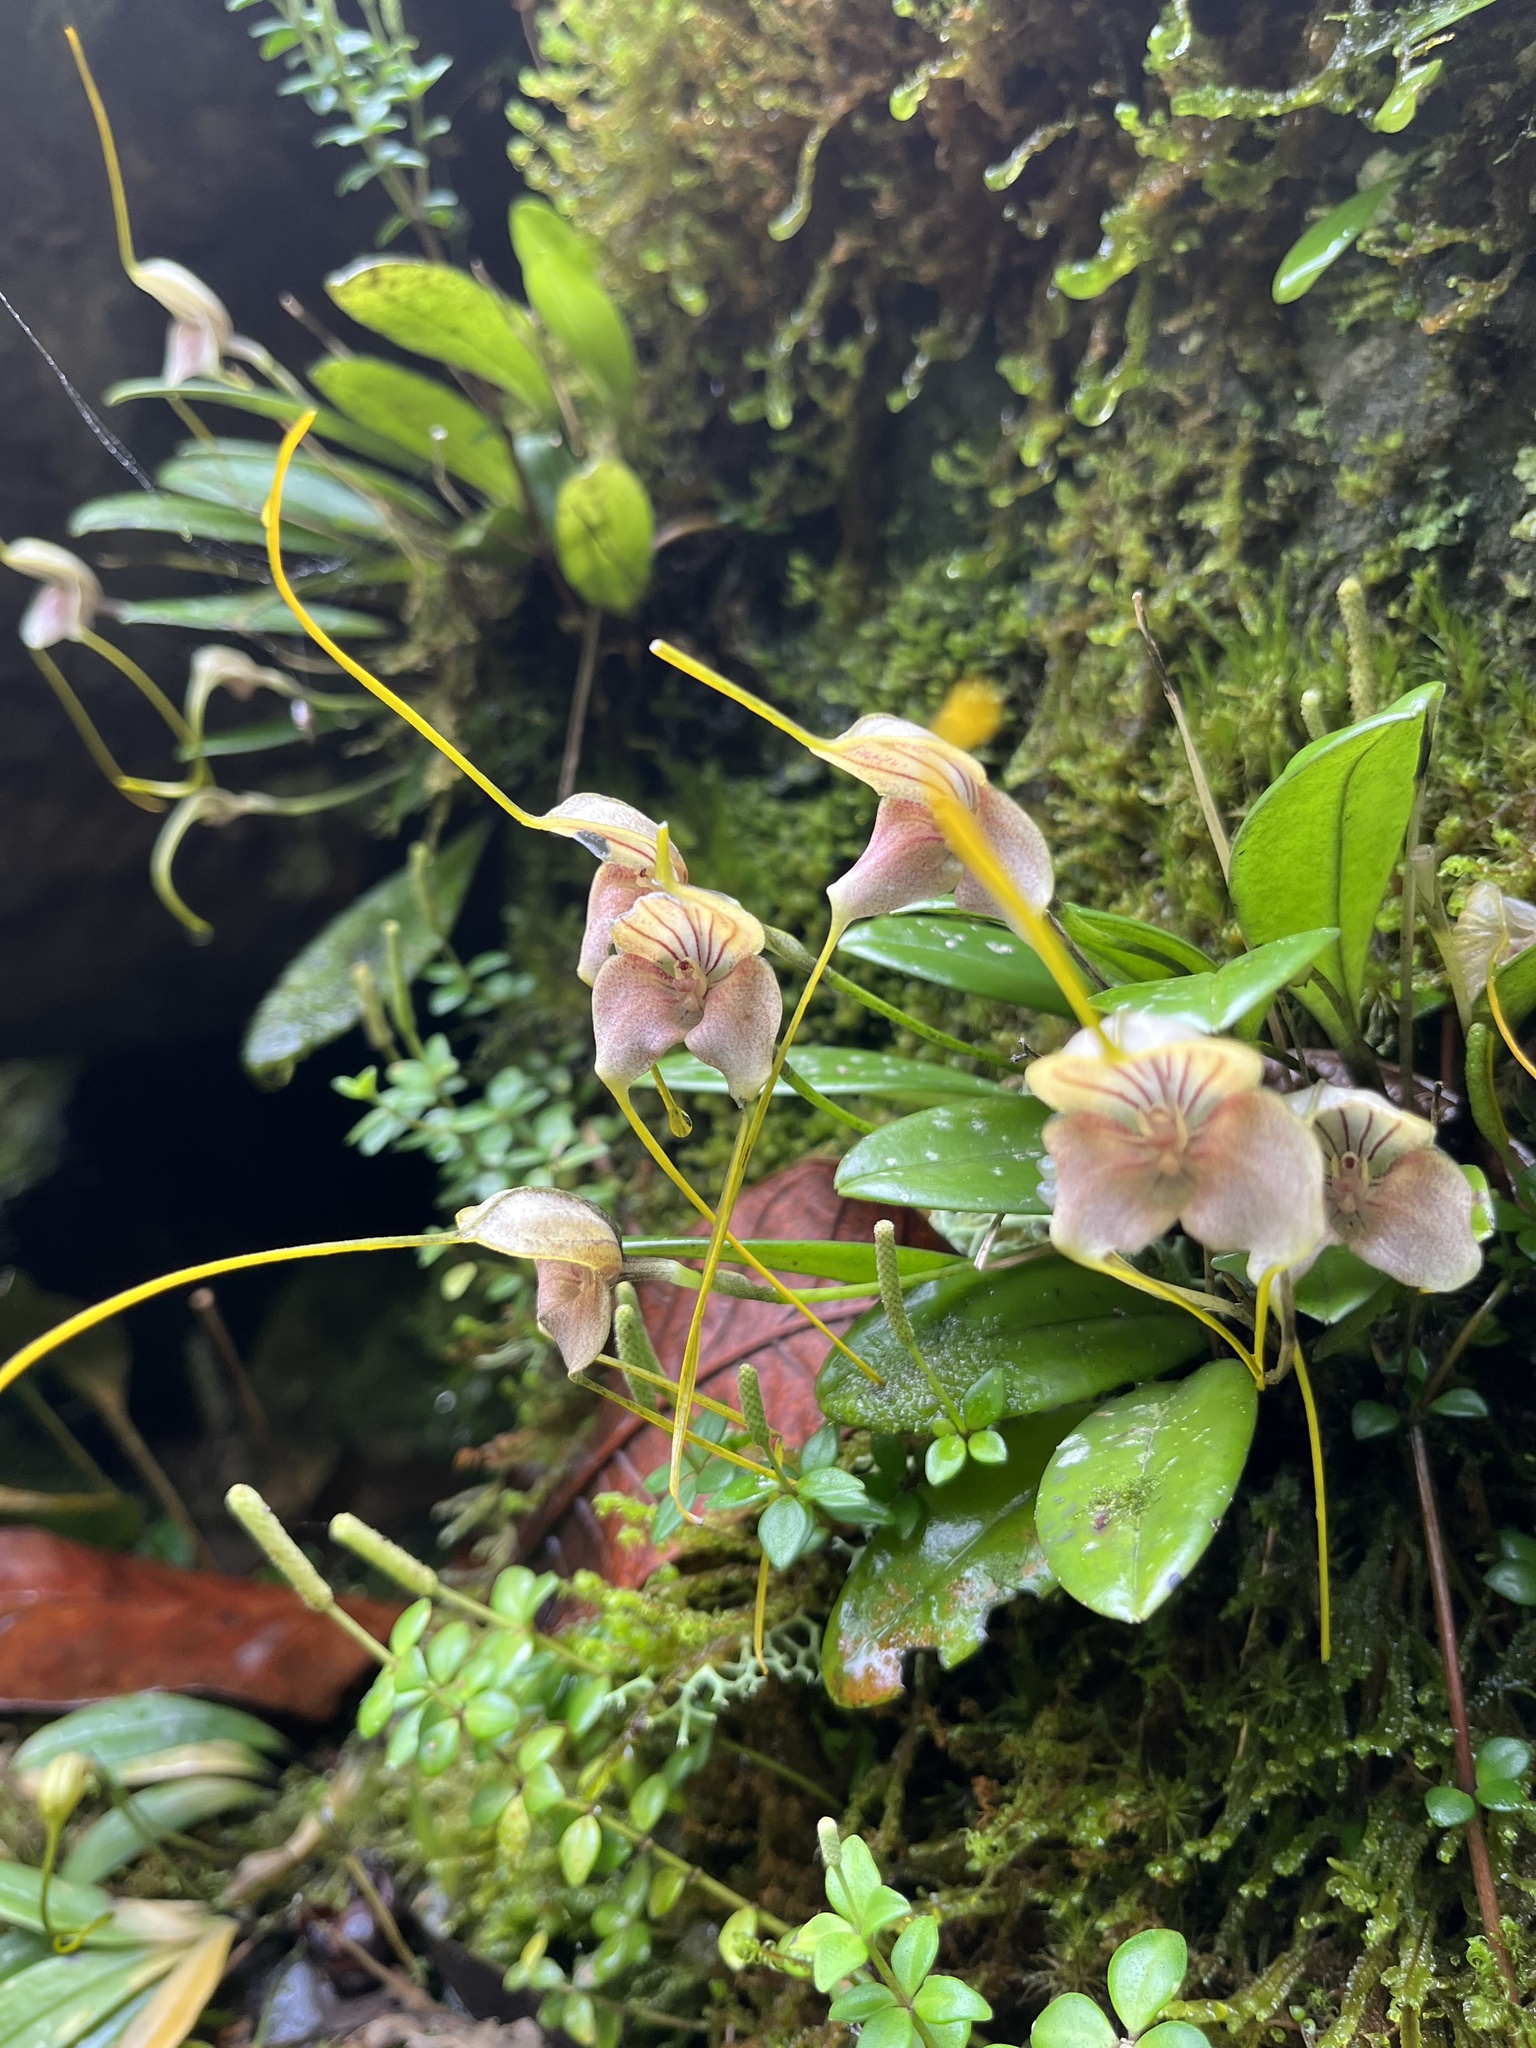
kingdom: Plantae
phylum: Tracheophyta
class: Liliopsida
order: Asparagales
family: Orchidaceae
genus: Masdevallia
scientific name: Masdevallia caudata
